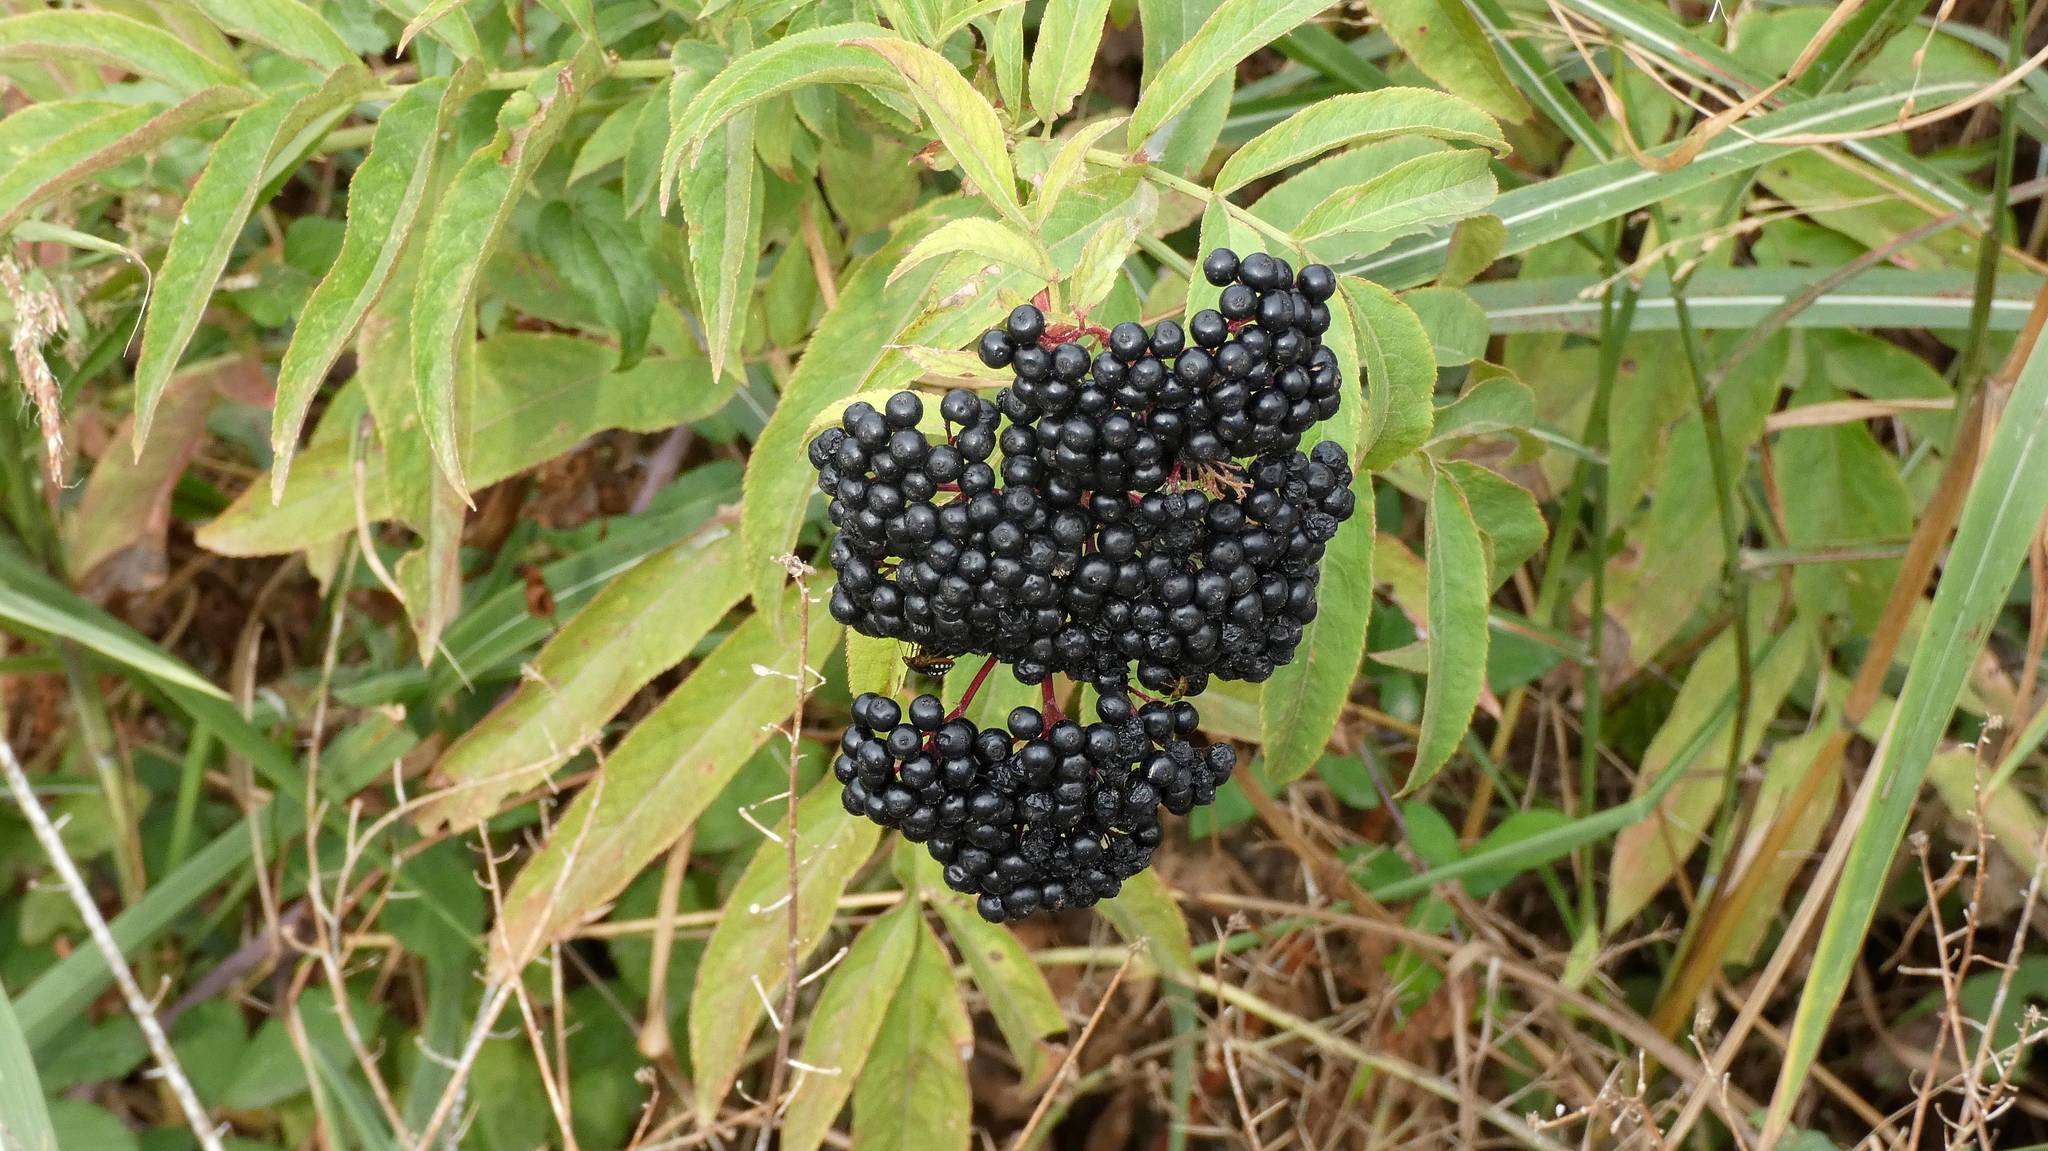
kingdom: Plantae
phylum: Tracheophyta
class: Magnoliopsida
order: Dipsacales
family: Viburnaceae
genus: Sambucus
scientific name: Sambucus ebulus
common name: Dwarf elder
